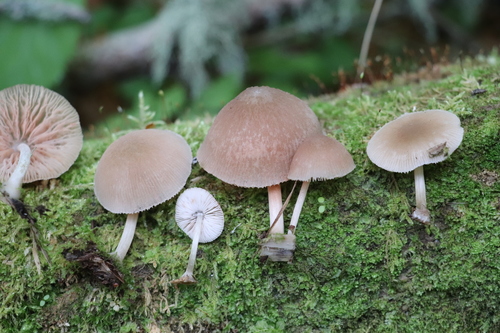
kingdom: Fungi
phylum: Basidiomycota
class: Agaricomycetes
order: Agaricales
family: Pluteaceae
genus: Pluteus
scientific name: Pluteus semibulbosus
